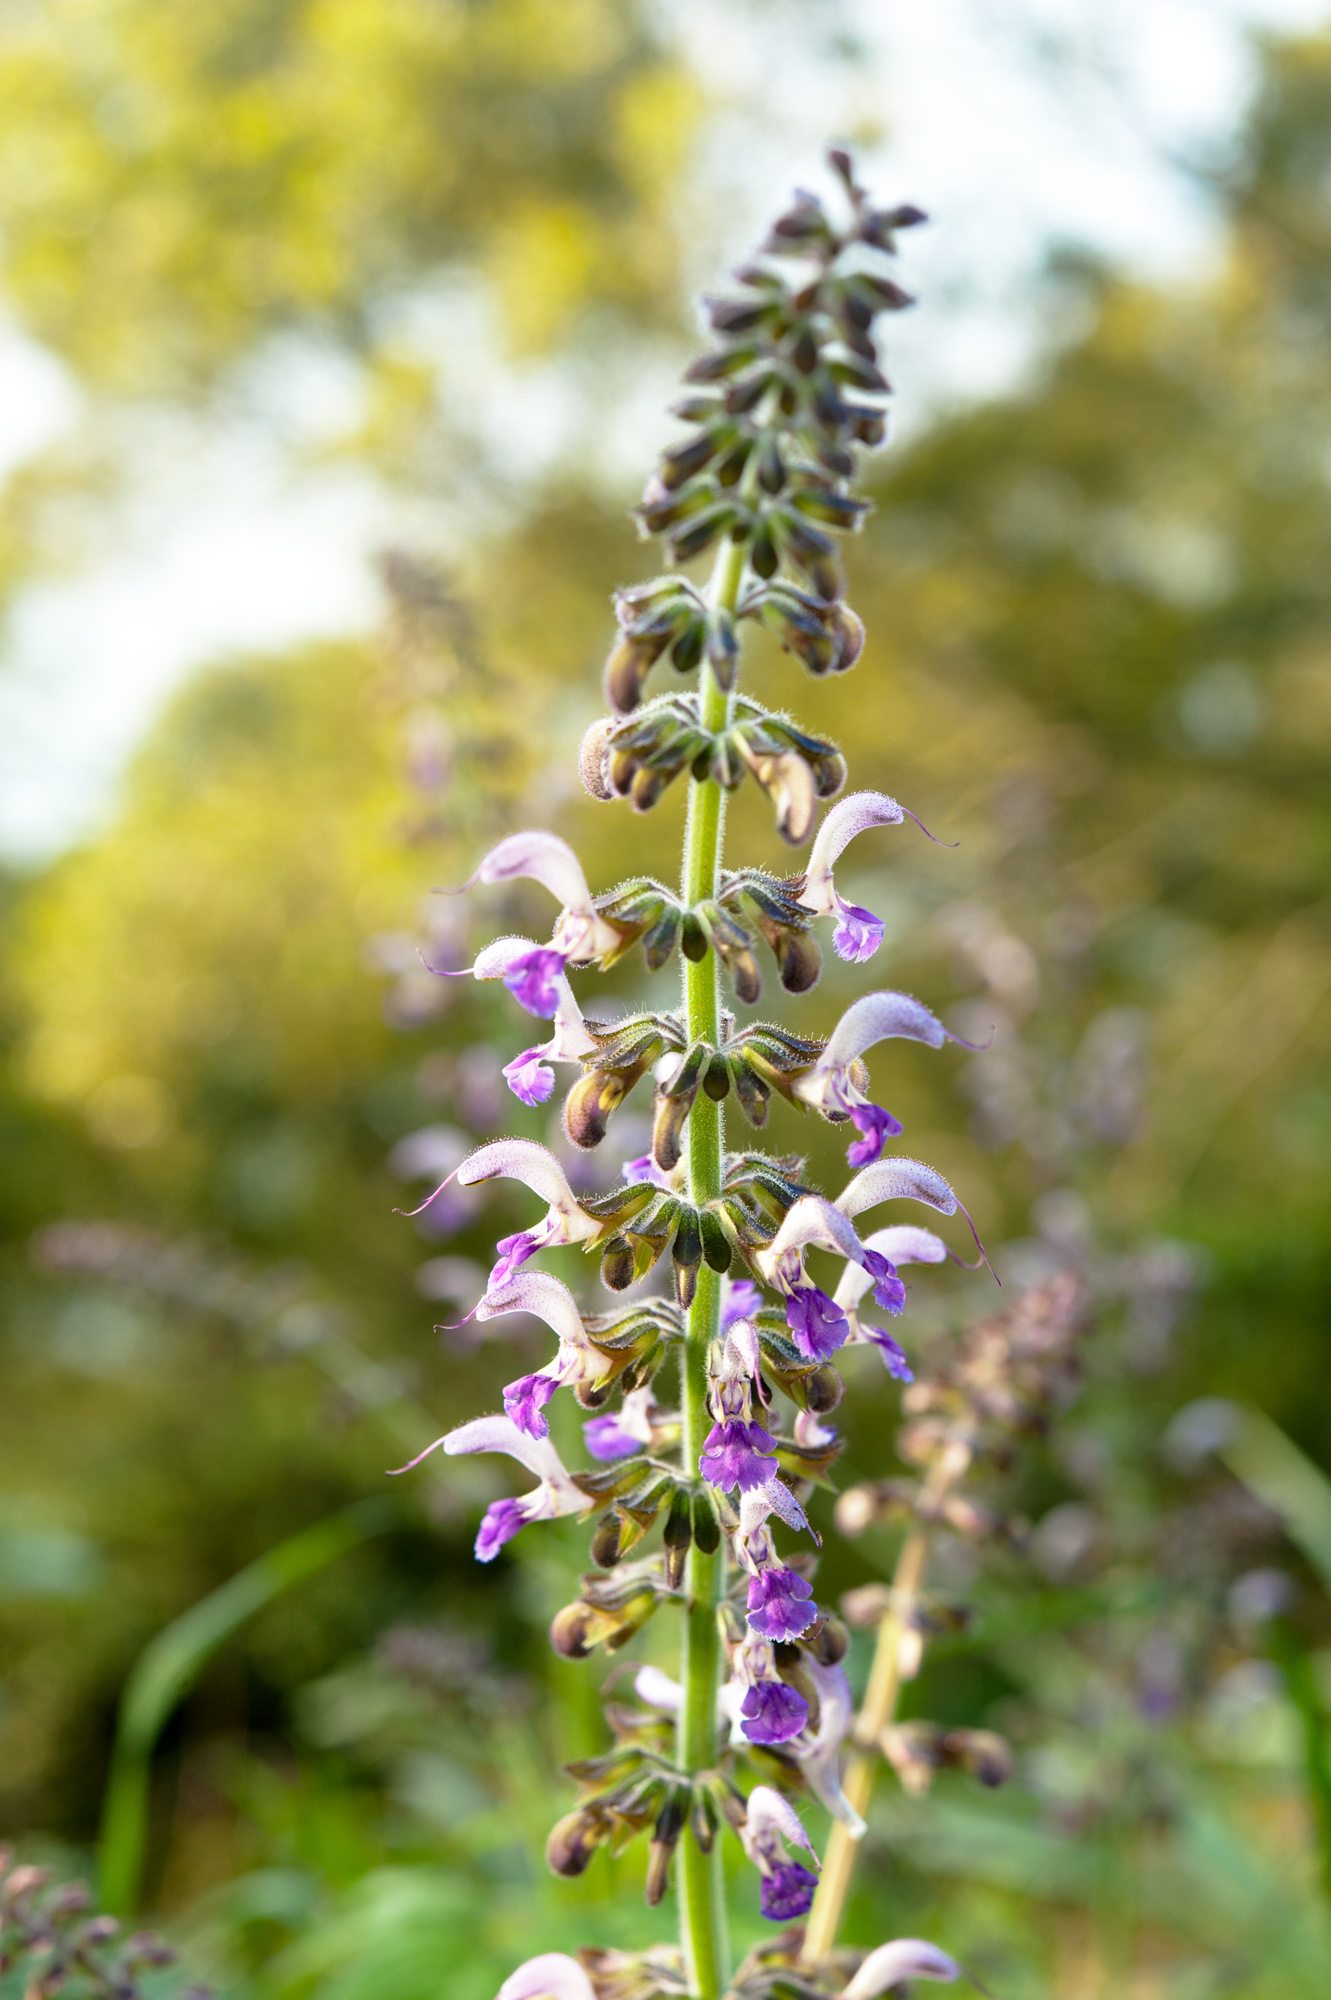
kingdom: Plantae
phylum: Tracheophyta
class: Magnoliopsida
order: Lamiales
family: Lamiaceae
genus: Salvia
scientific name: Salvia bowleyana
